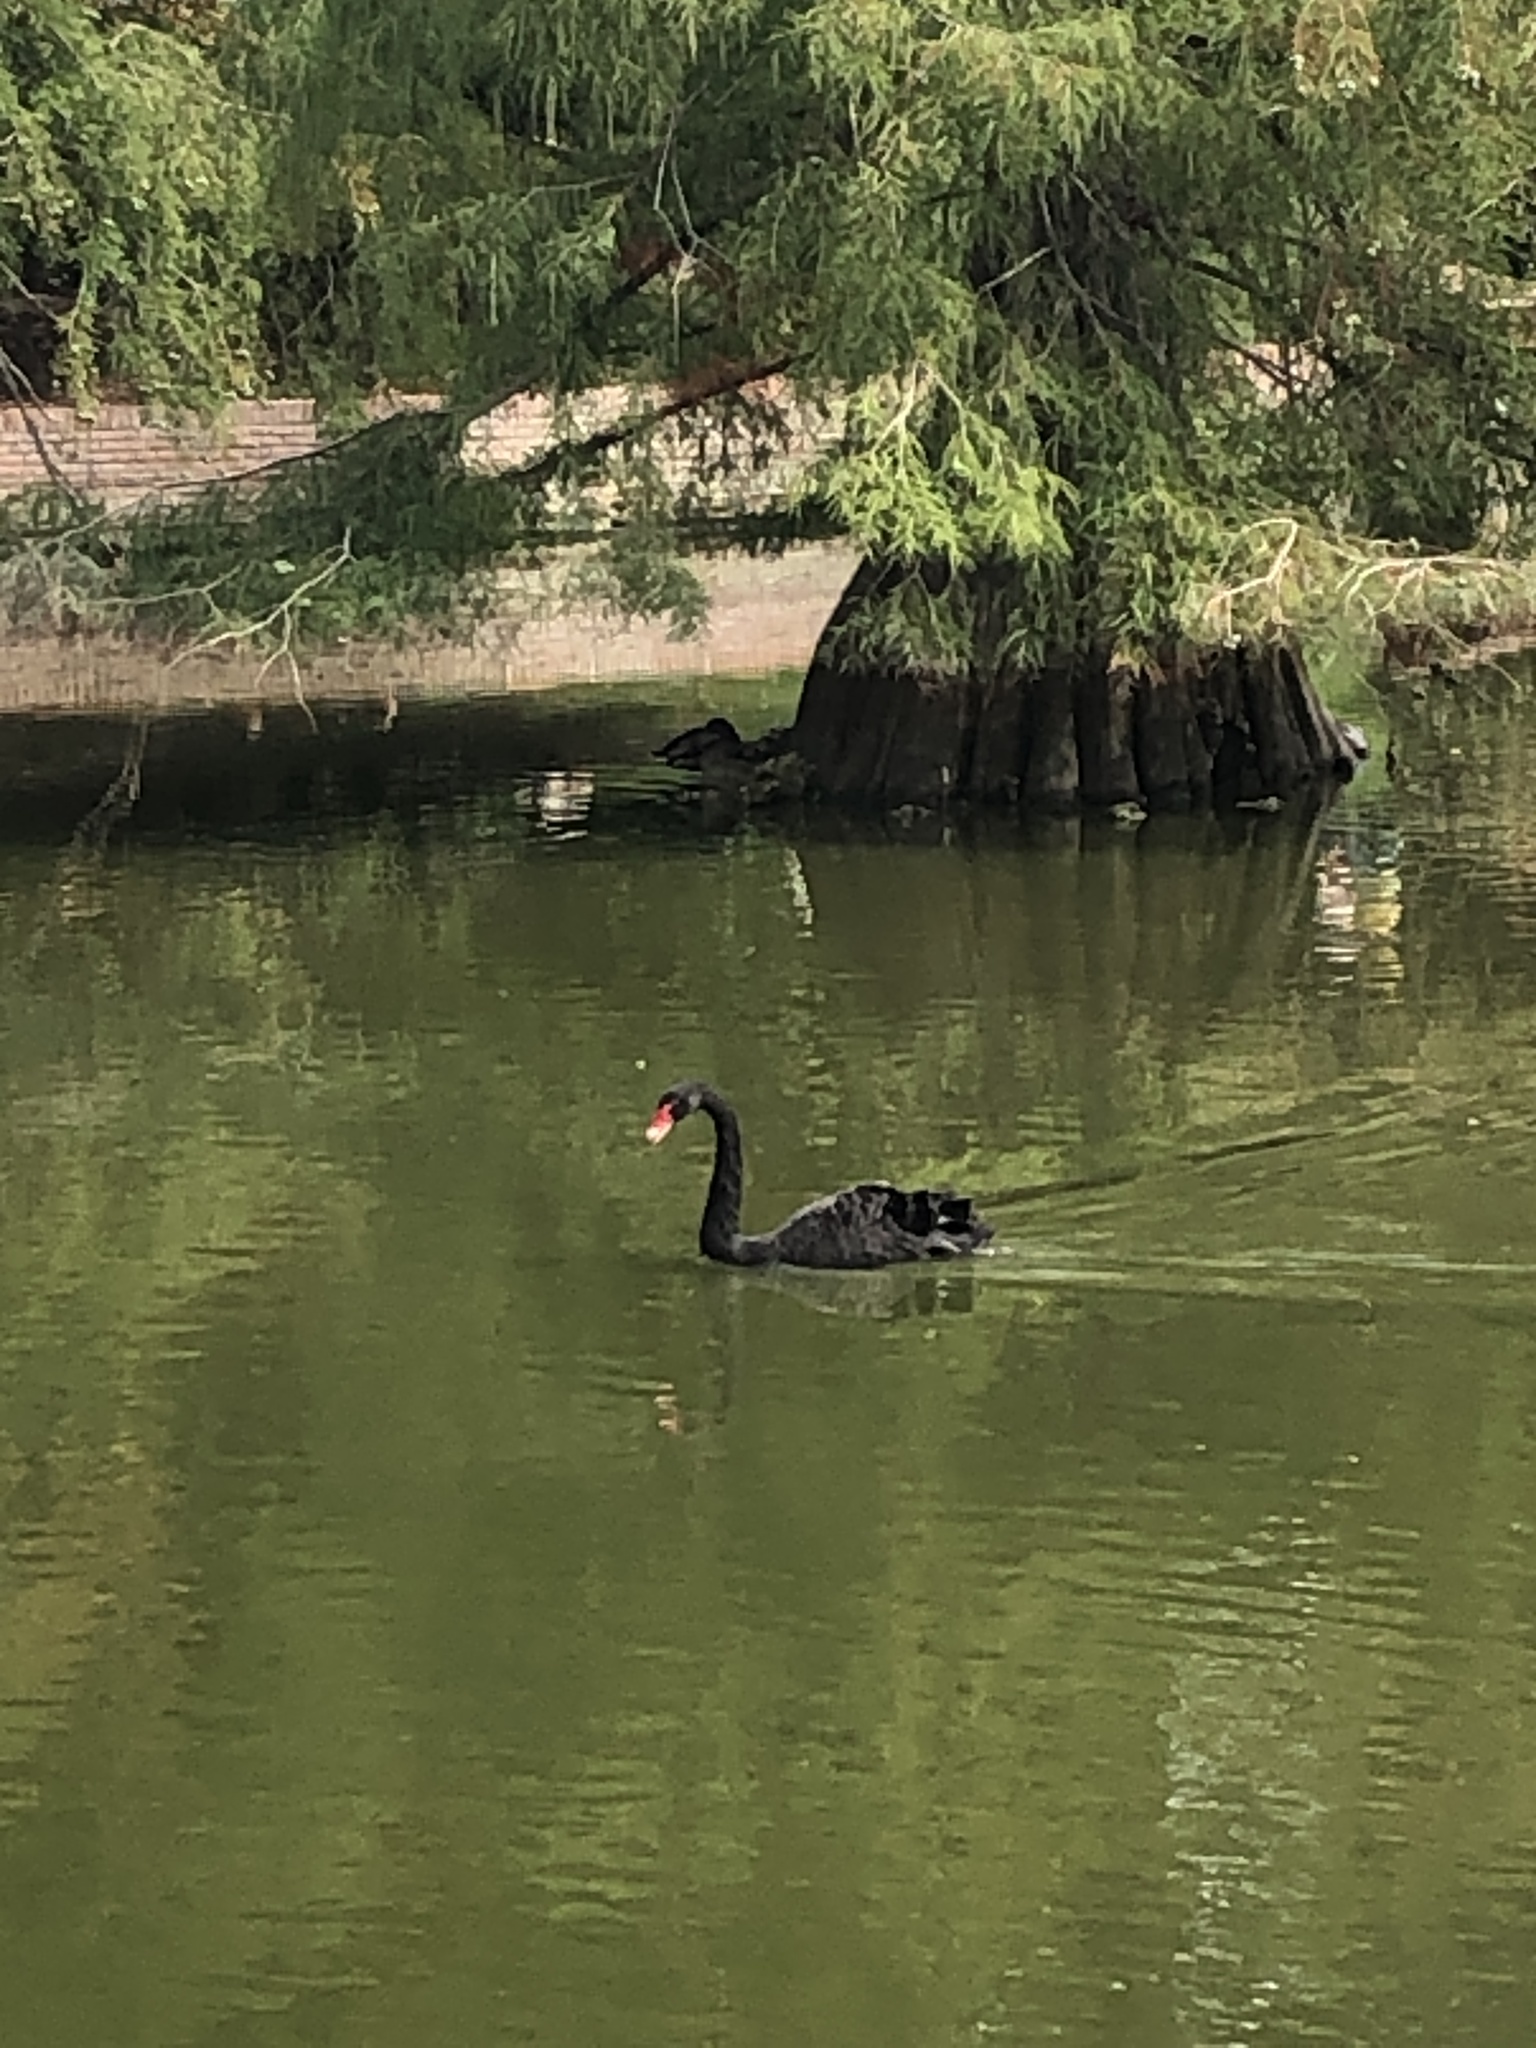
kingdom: Animalia
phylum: Chordata
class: Aves
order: Anseriformes
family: Anatidae
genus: Cygnus
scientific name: Cygnus atratus
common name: Black swan
